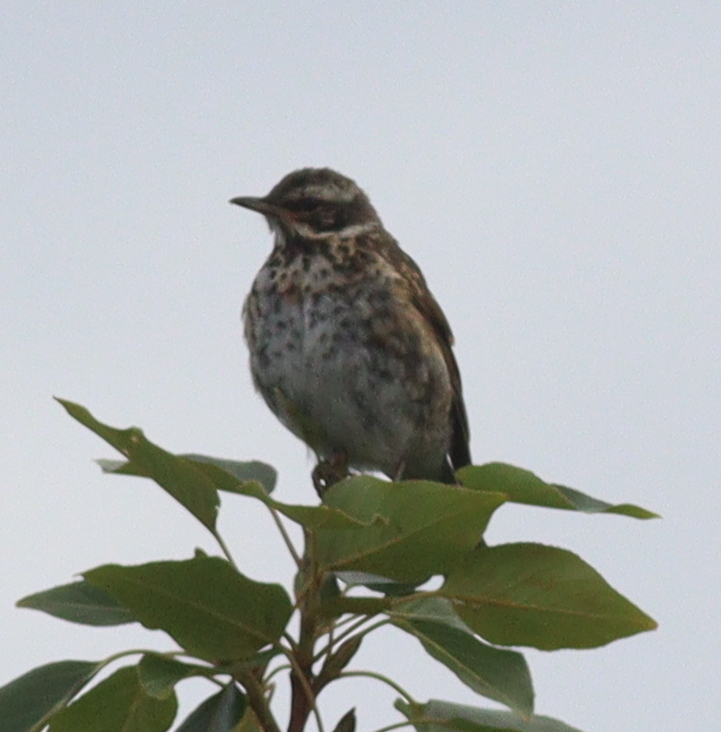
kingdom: Animalia
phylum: Chordata
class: Aves
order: Passeriformes
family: Turdidae
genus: Turdus
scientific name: Turdus iliacus
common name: Redwing
